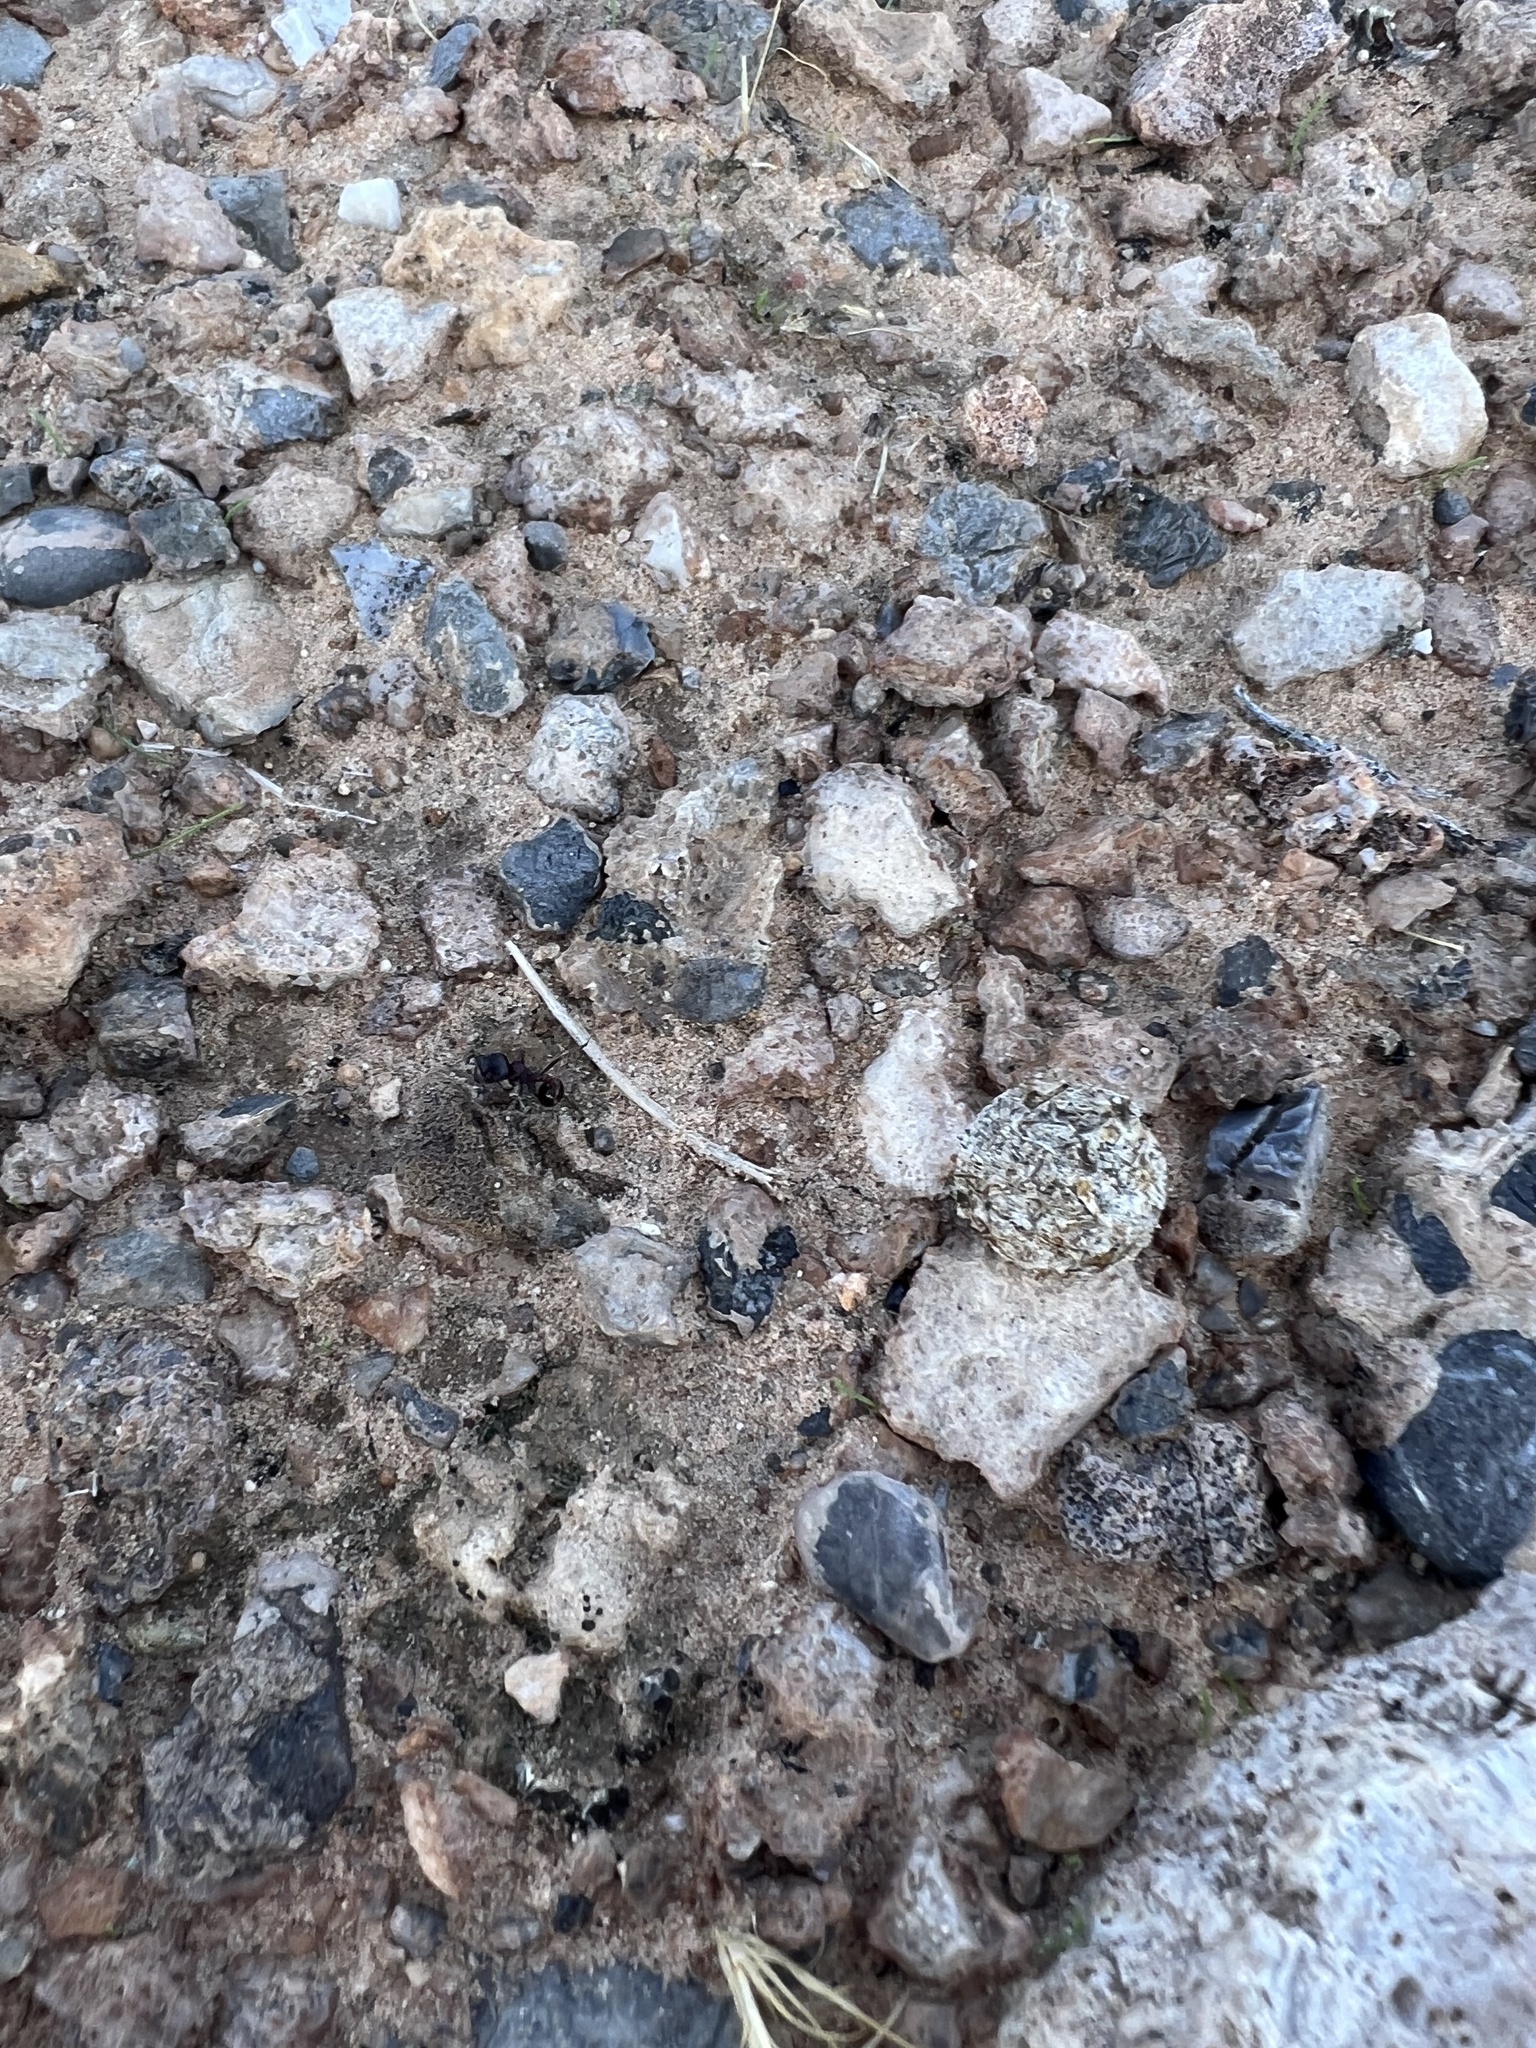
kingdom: Animalia
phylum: Arthropoda
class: Insecta
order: Hymenoptera
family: Formicidae
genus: Pogonomyrmex
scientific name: Pogonomyrmex rugosus
